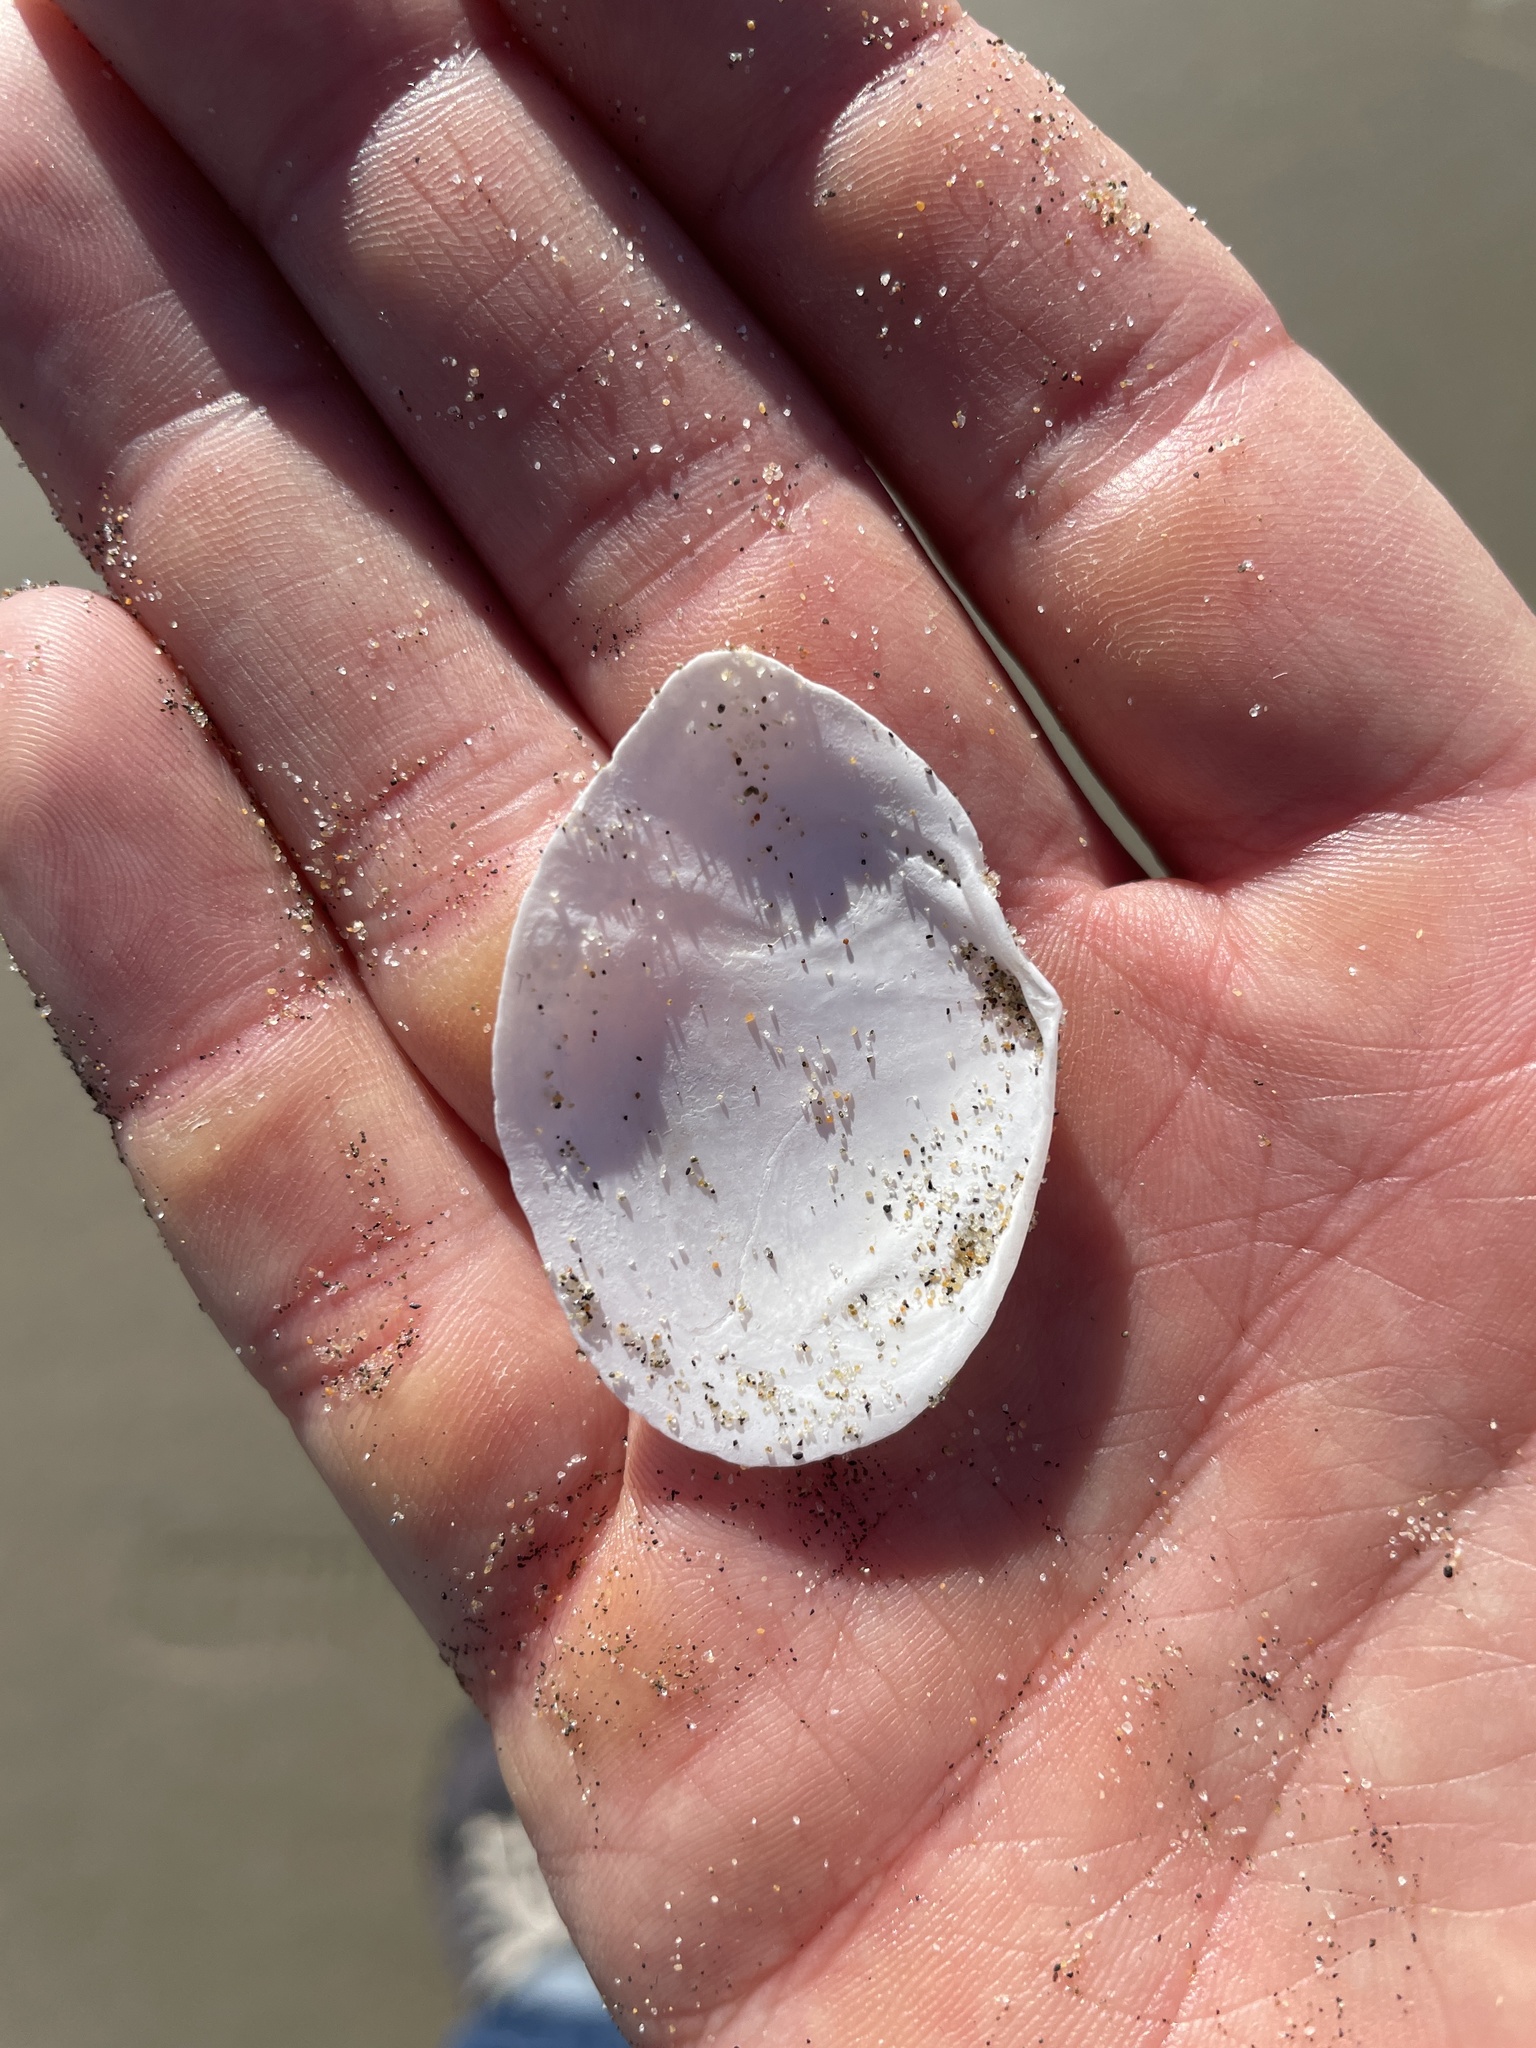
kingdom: Animalia
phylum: Mollusca
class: Bivalvia
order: Cardiida
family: Tellinidae
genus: Rexithaerus
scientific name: Rexithaerus secta
